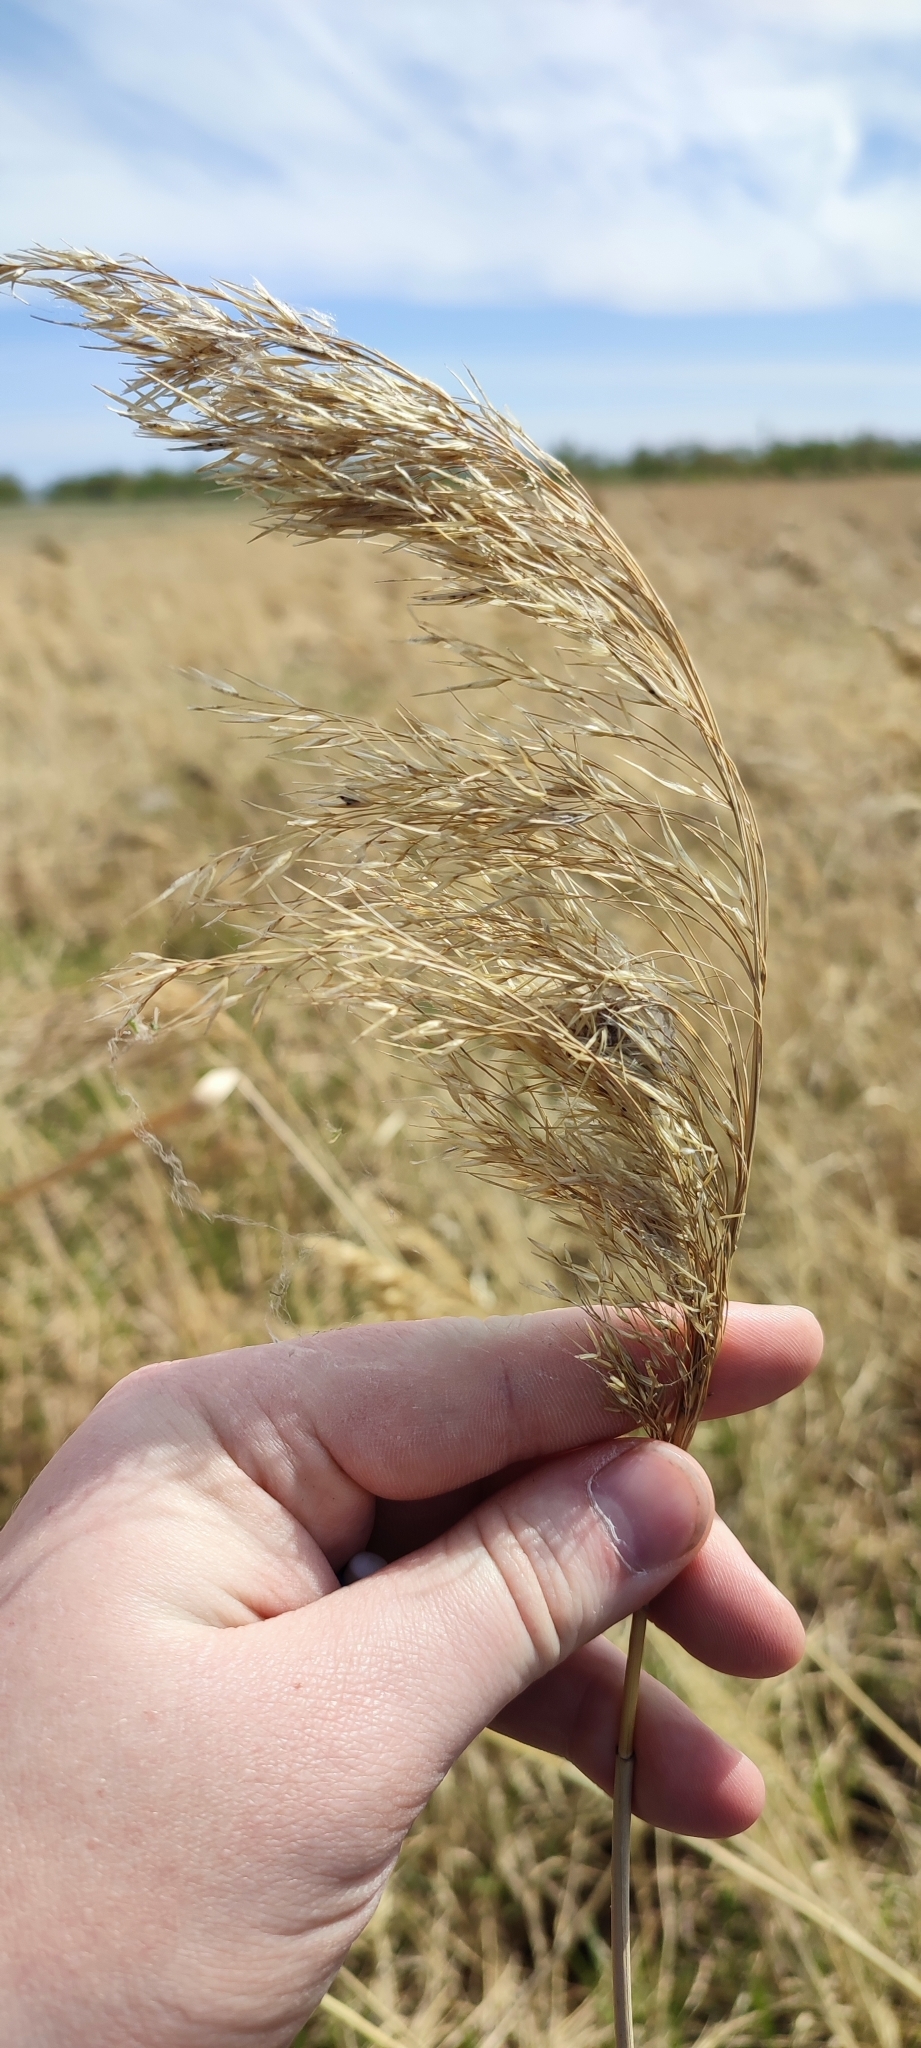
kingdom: Plantae
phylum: Tracheophyta
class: Liliopsida
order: Poales
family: Poaceae
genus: Phragmites
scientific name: Phragmites australis
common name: Common reed
